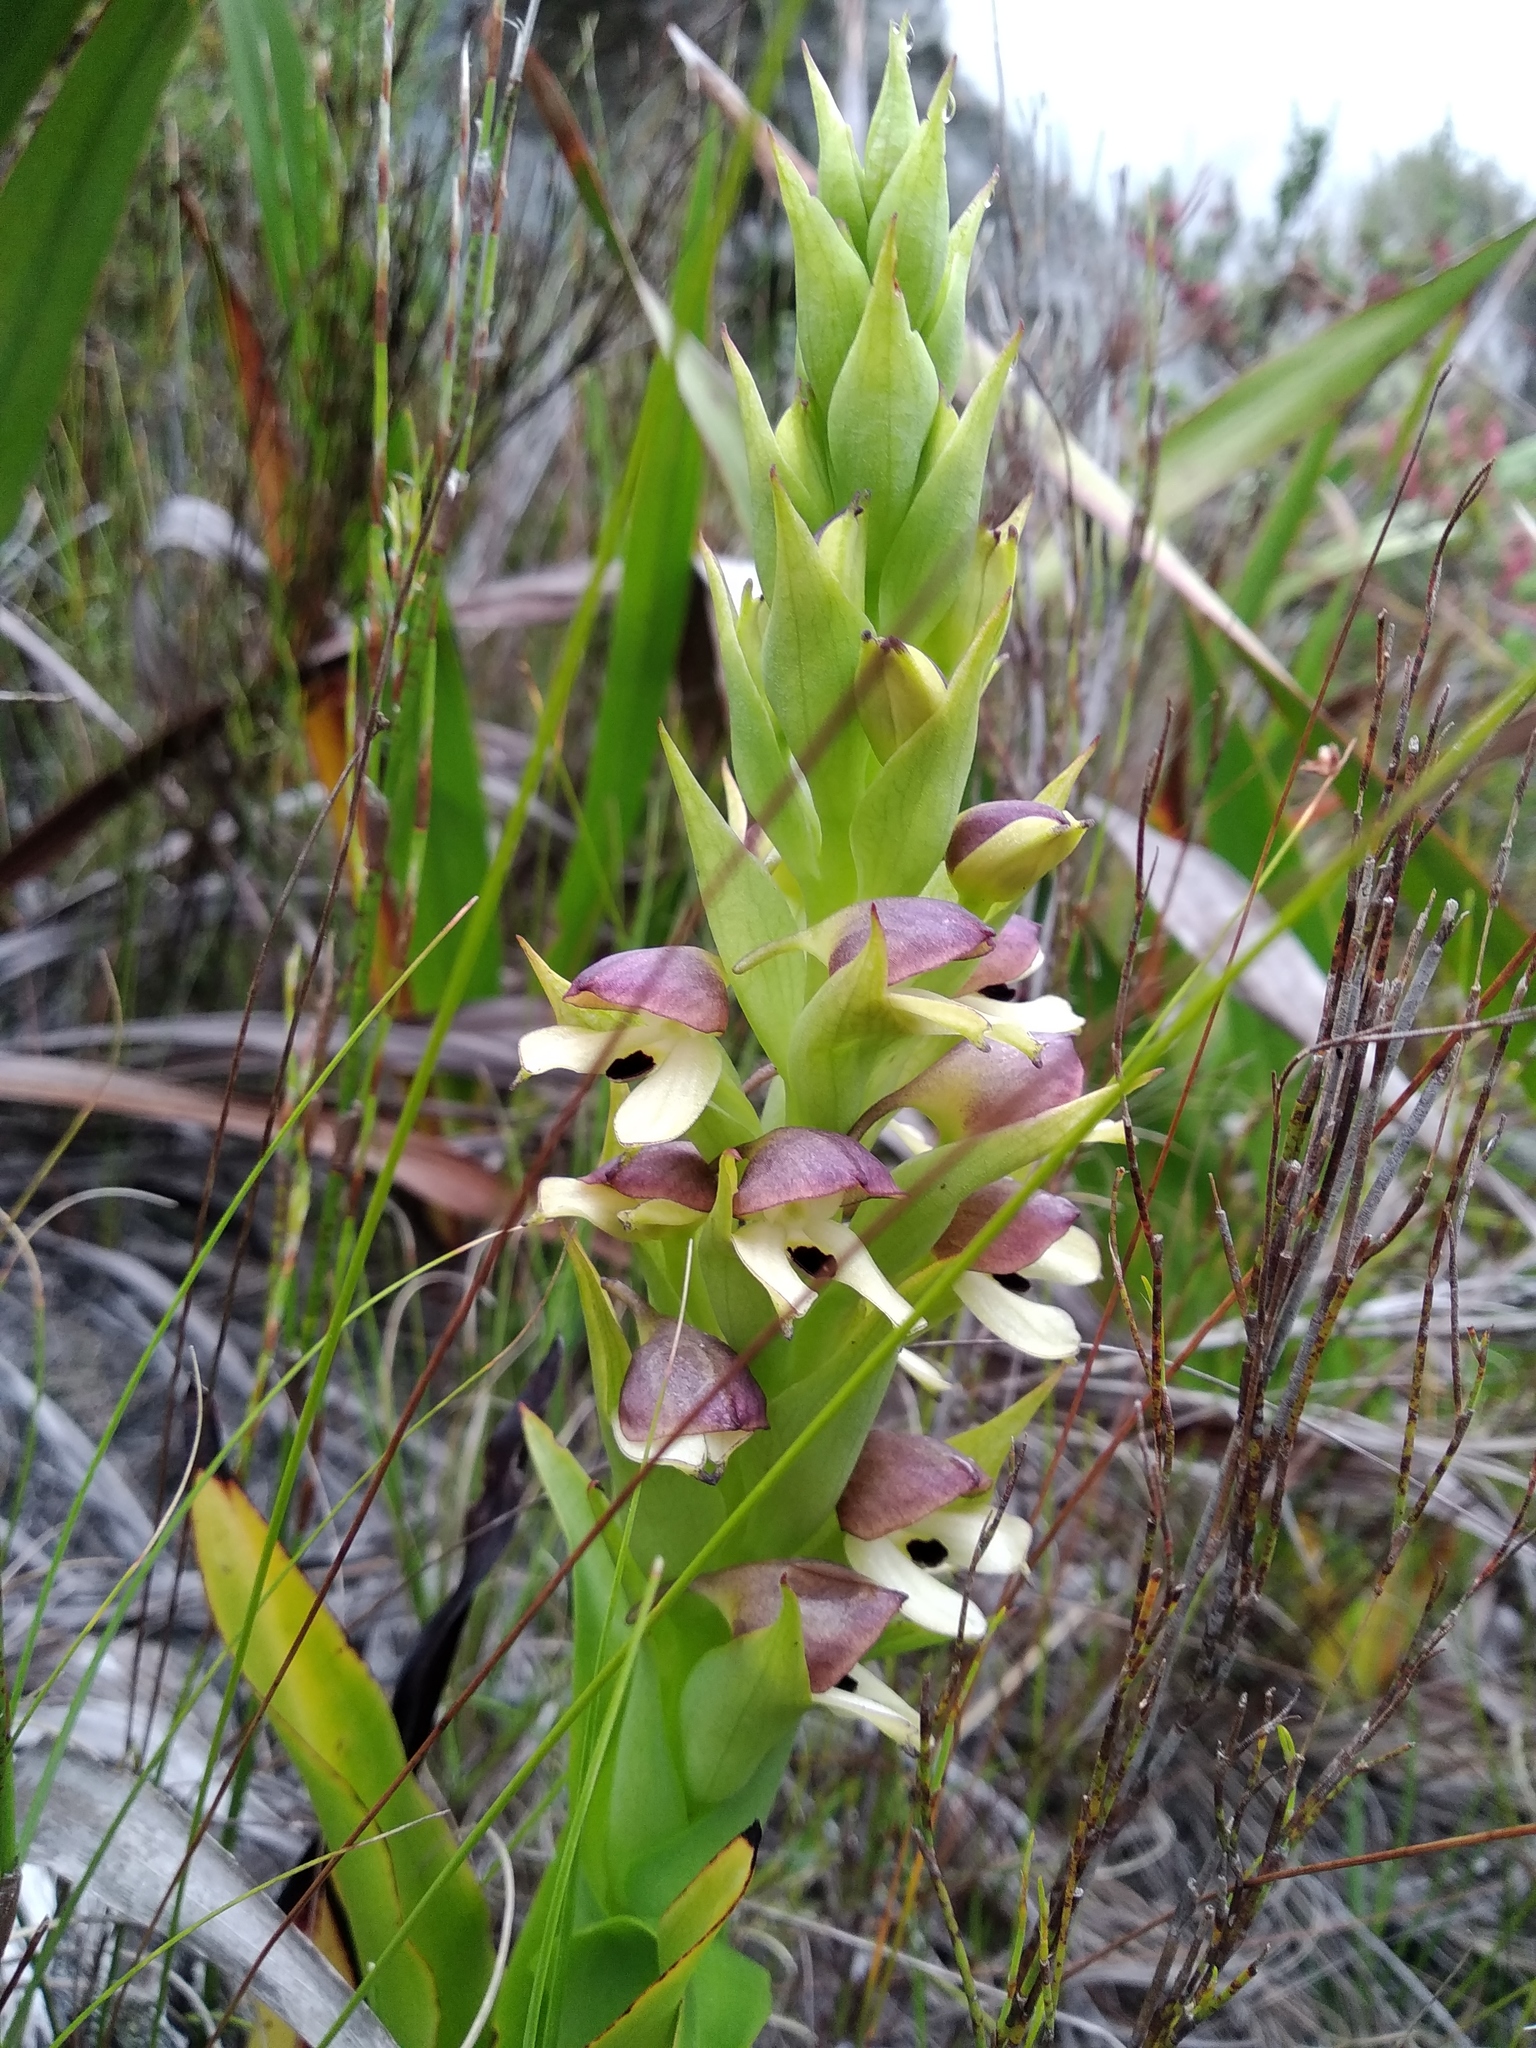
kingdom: Plantae
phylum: Tracheophyta
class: Liliopsida
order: Asparagales
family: Orchidaceae
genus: Disa
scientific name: Disa cornuta
